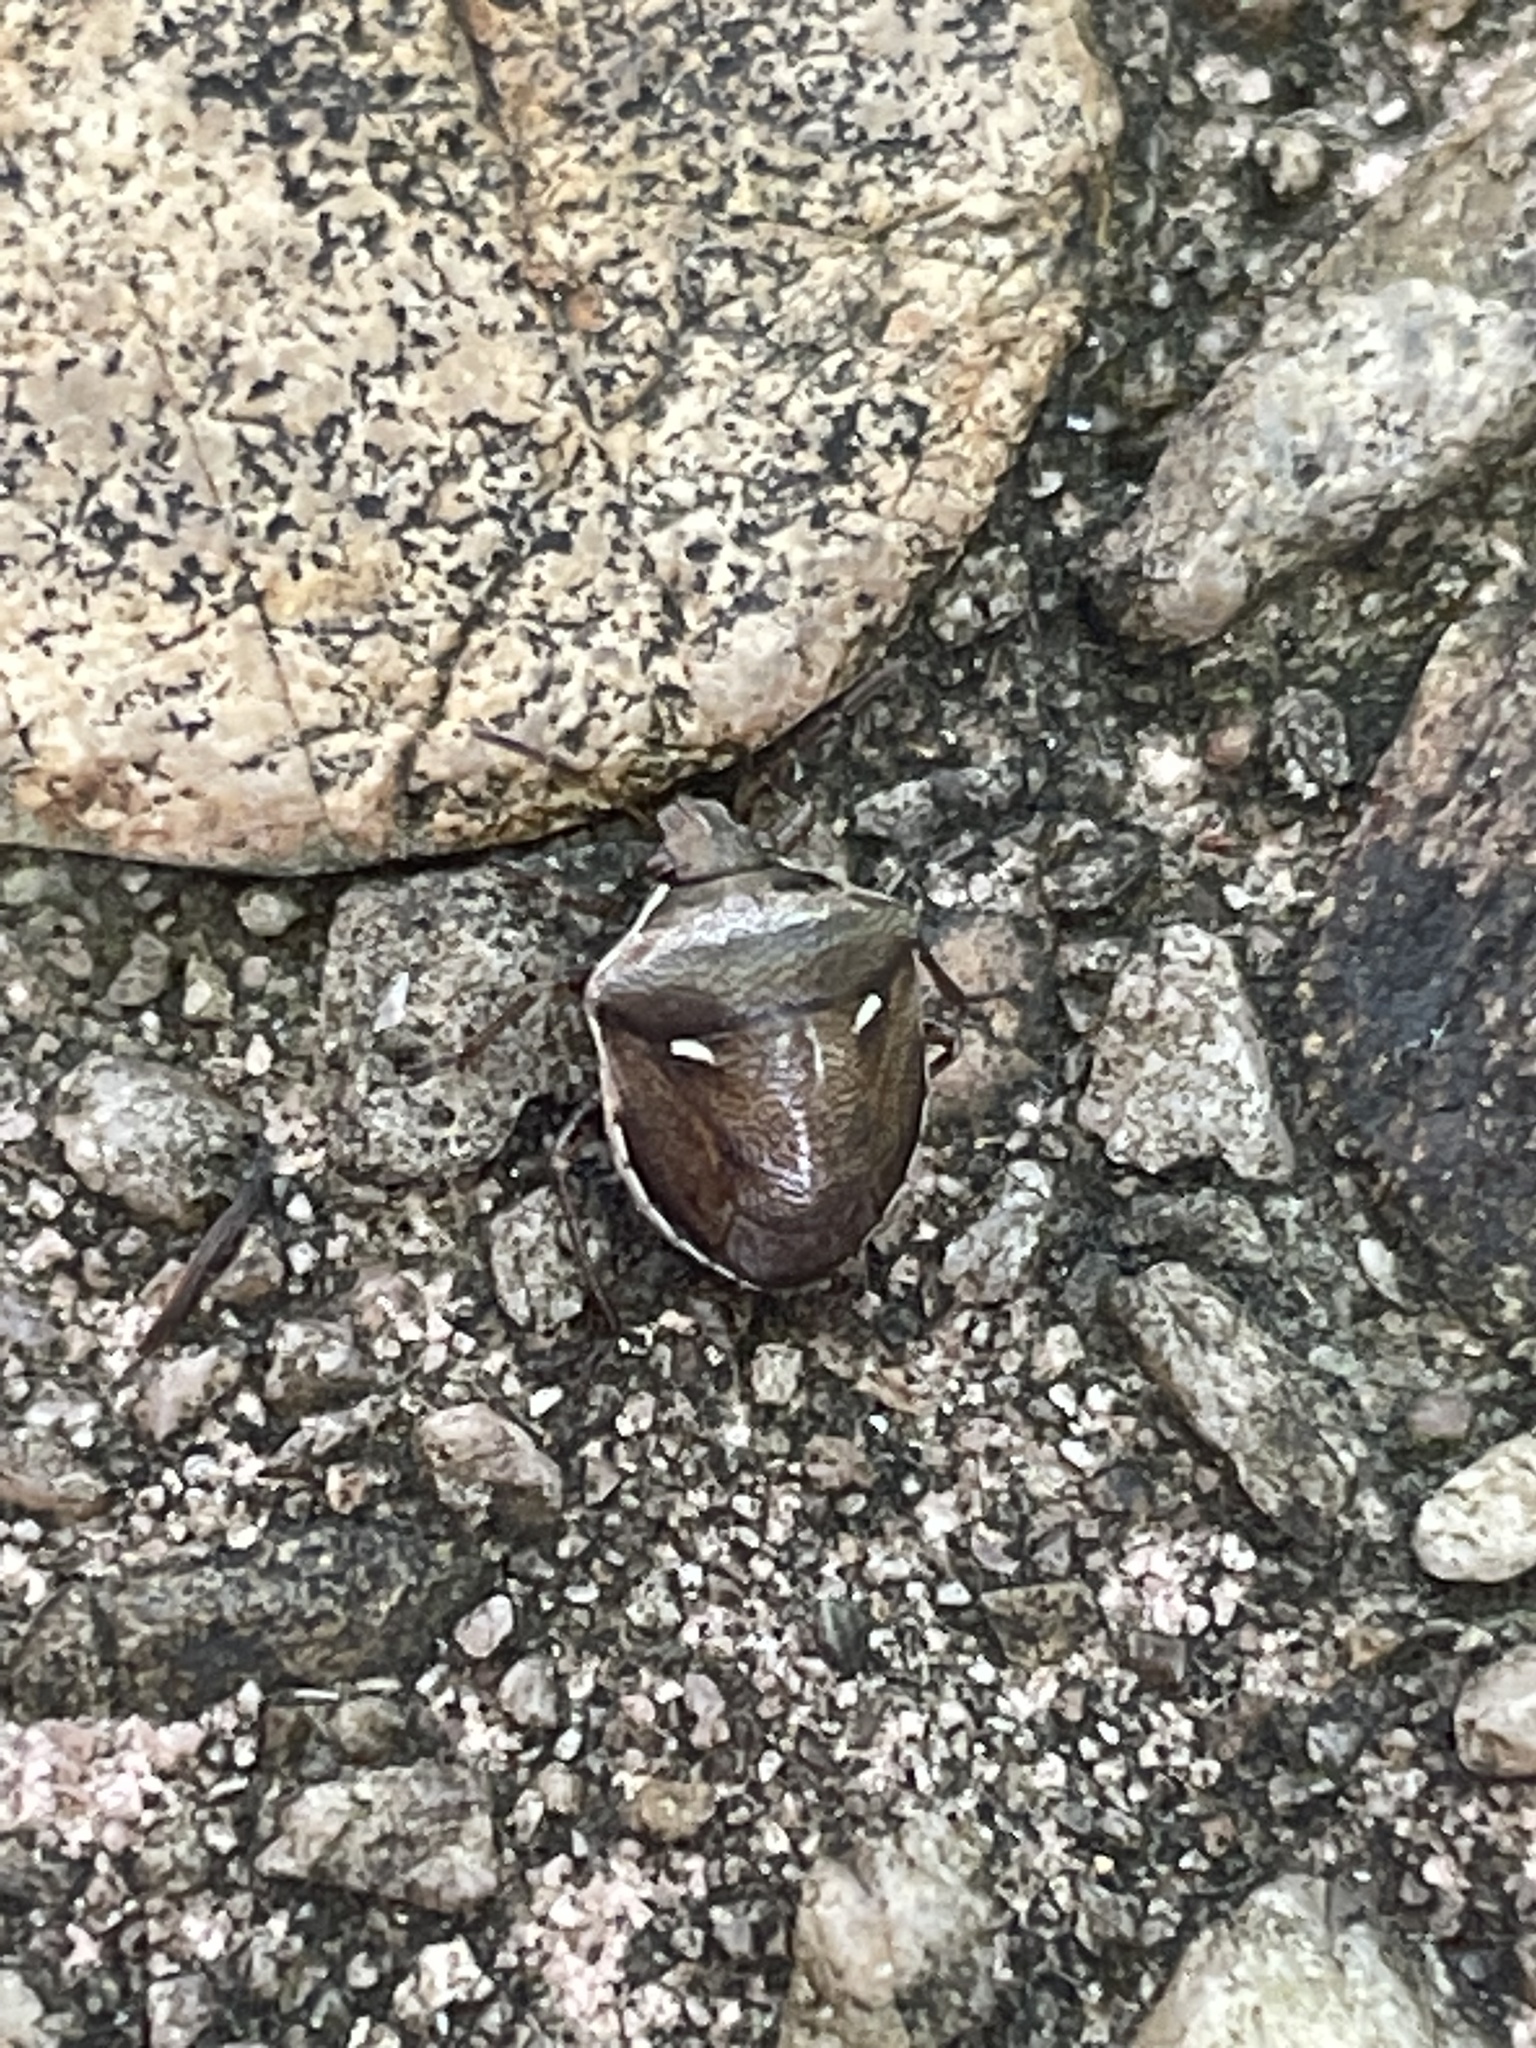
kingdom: Animalia
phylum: Arthropoda
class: Insecta
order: Hemiptera
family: Pentatomidae
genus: Eysarcoris
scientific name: Eysarcoris
